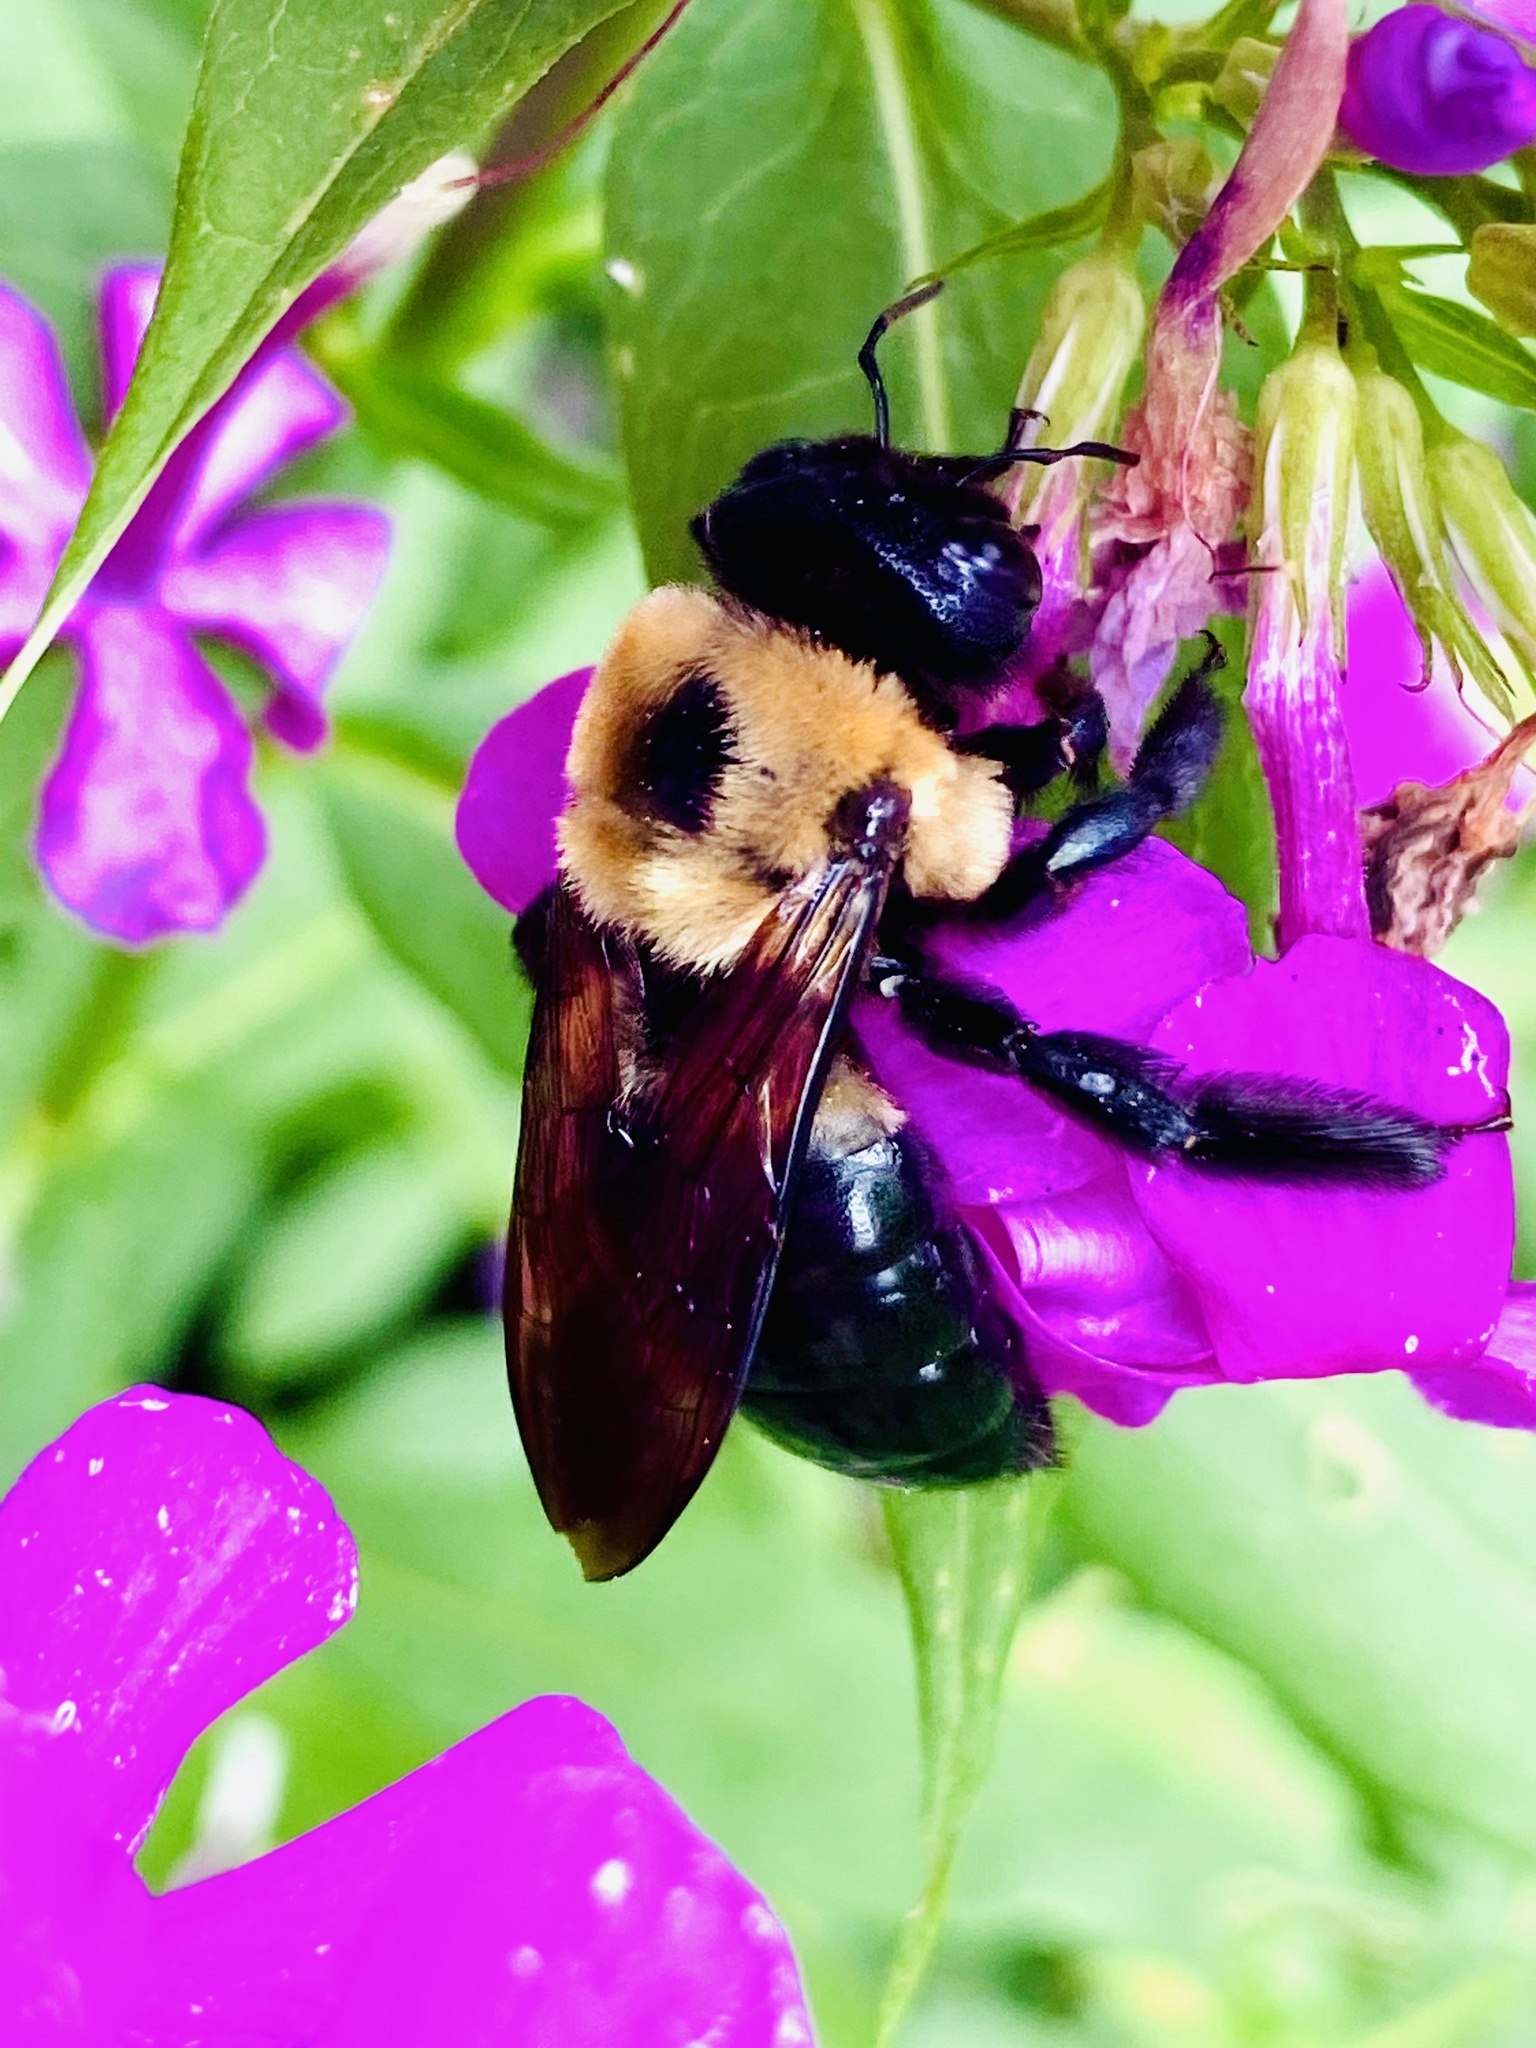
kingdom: Animalia
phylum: Arthropoda
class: Insecta
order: Hymenoptera
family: Apidae
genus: Xylocopa
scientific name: Xylocopa virginica
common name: Carpenter bee
